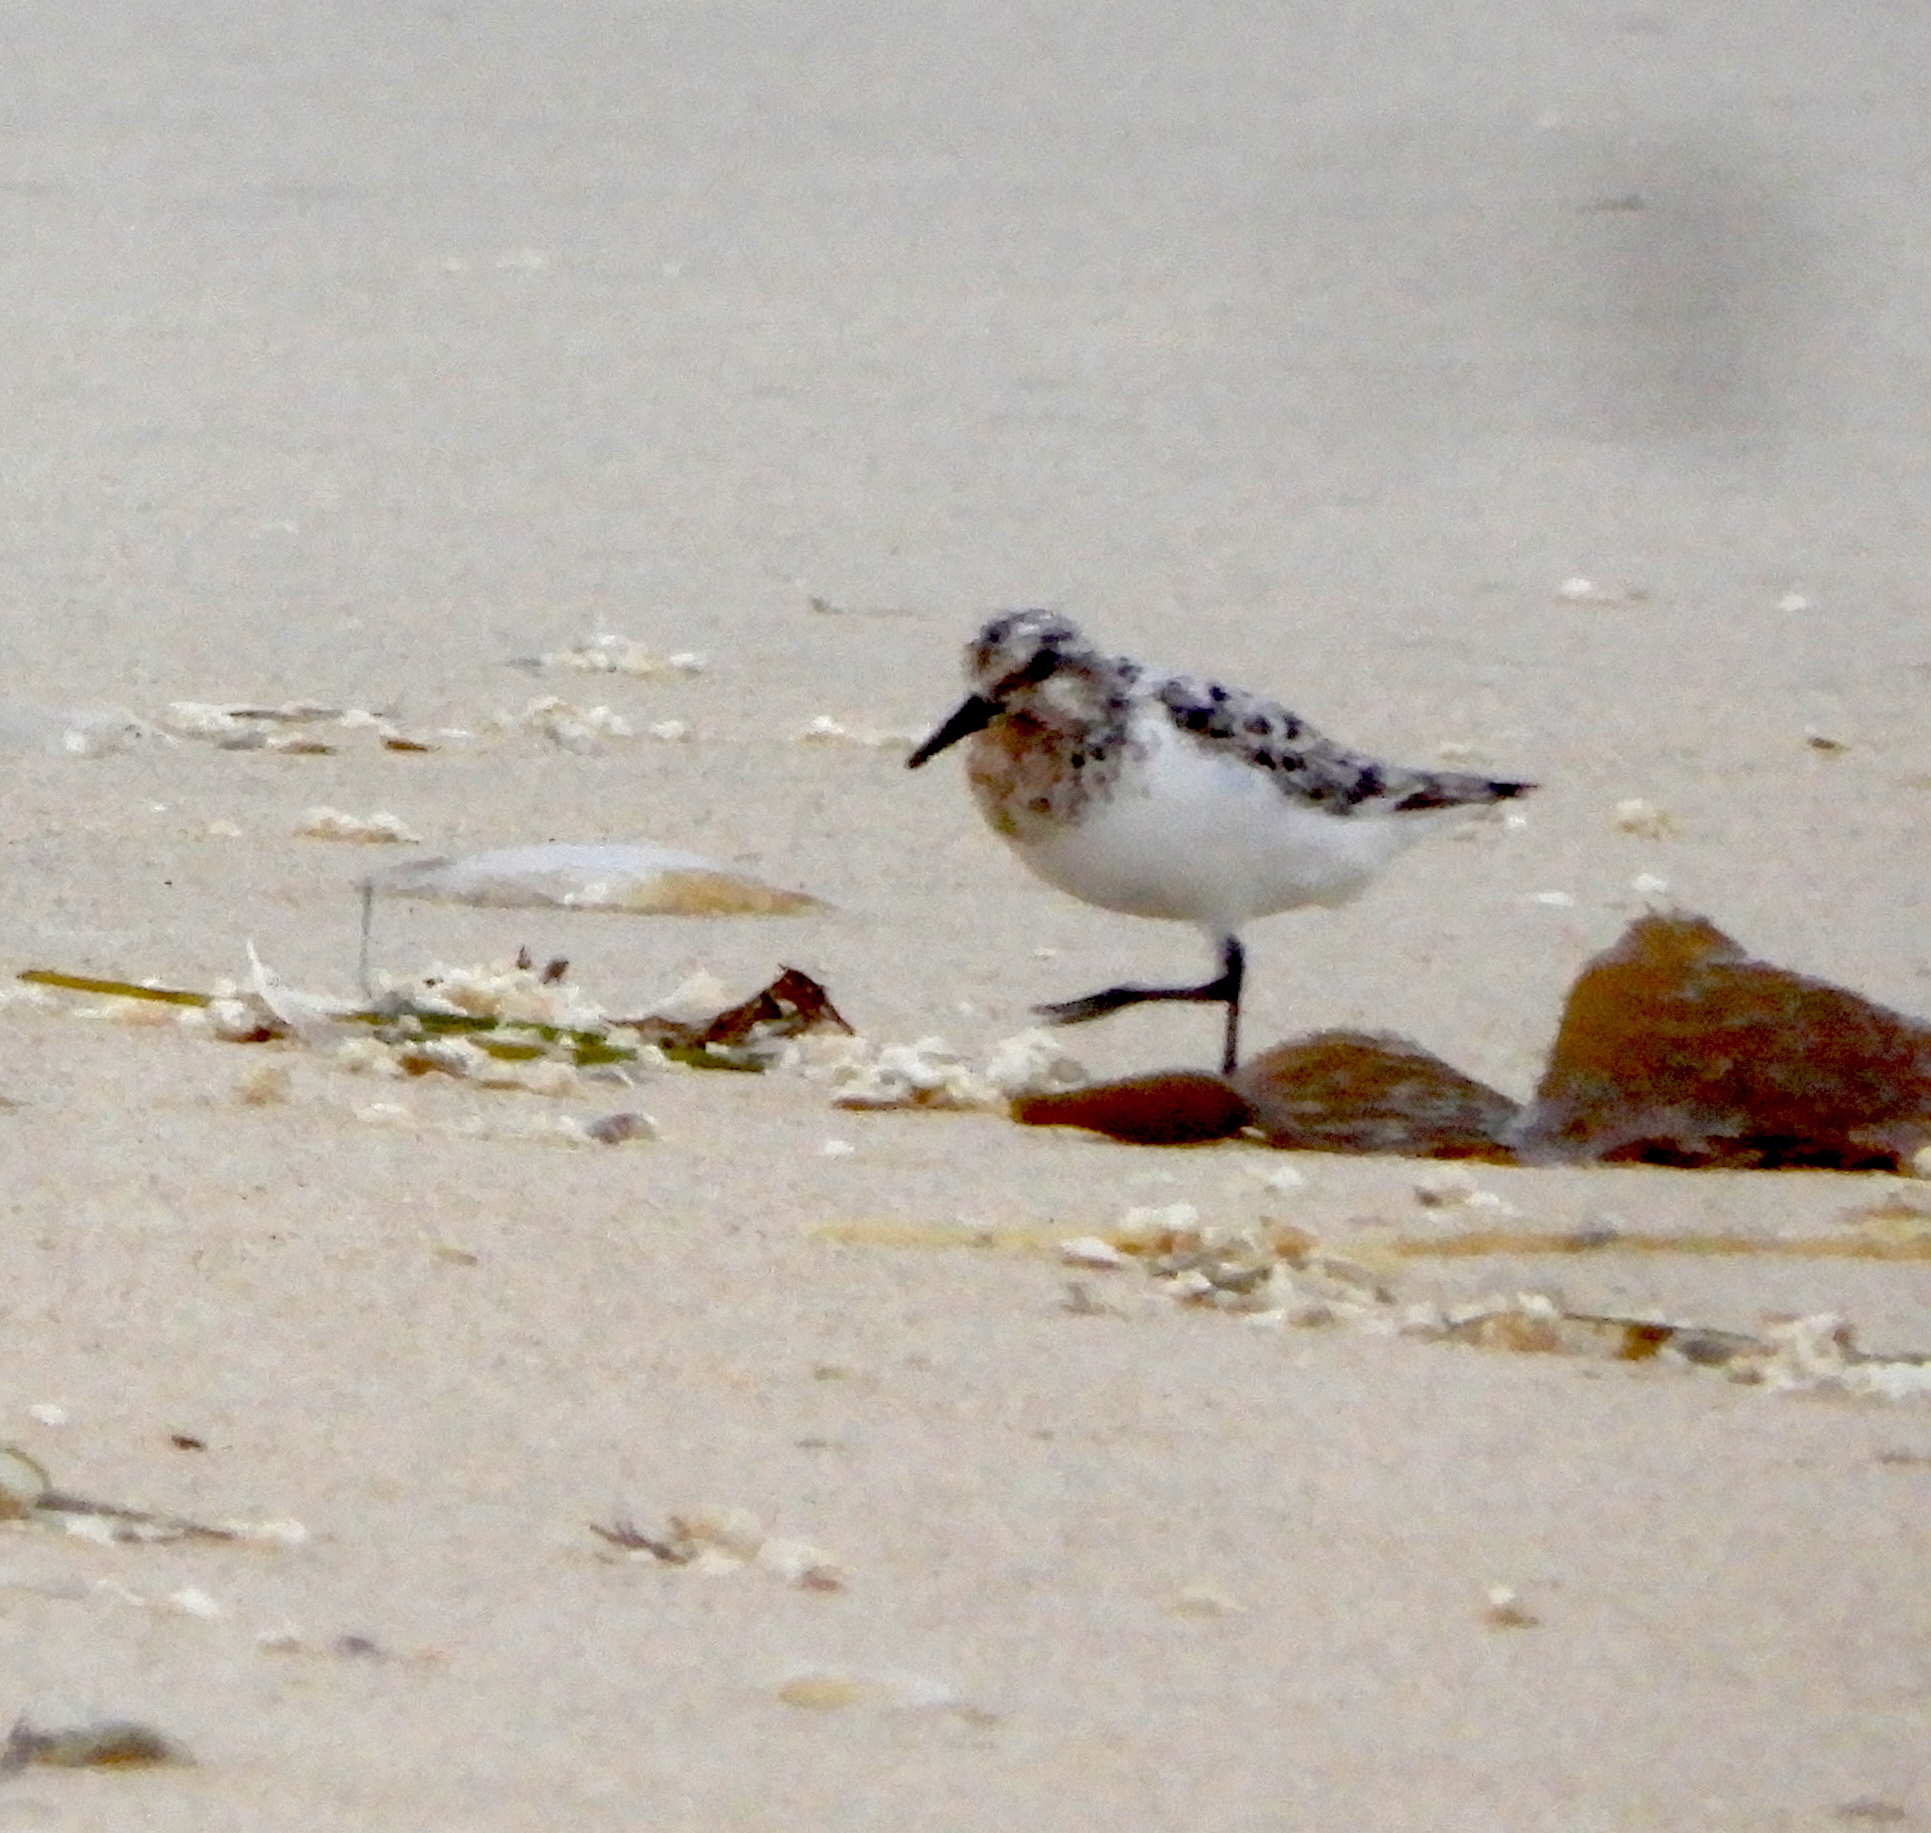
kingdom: Animalia
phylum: Chordata
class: Aves
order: Charadriiformes
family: Scolopacidae
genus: Calidris
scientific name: Calidris alba
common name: Sanderling
